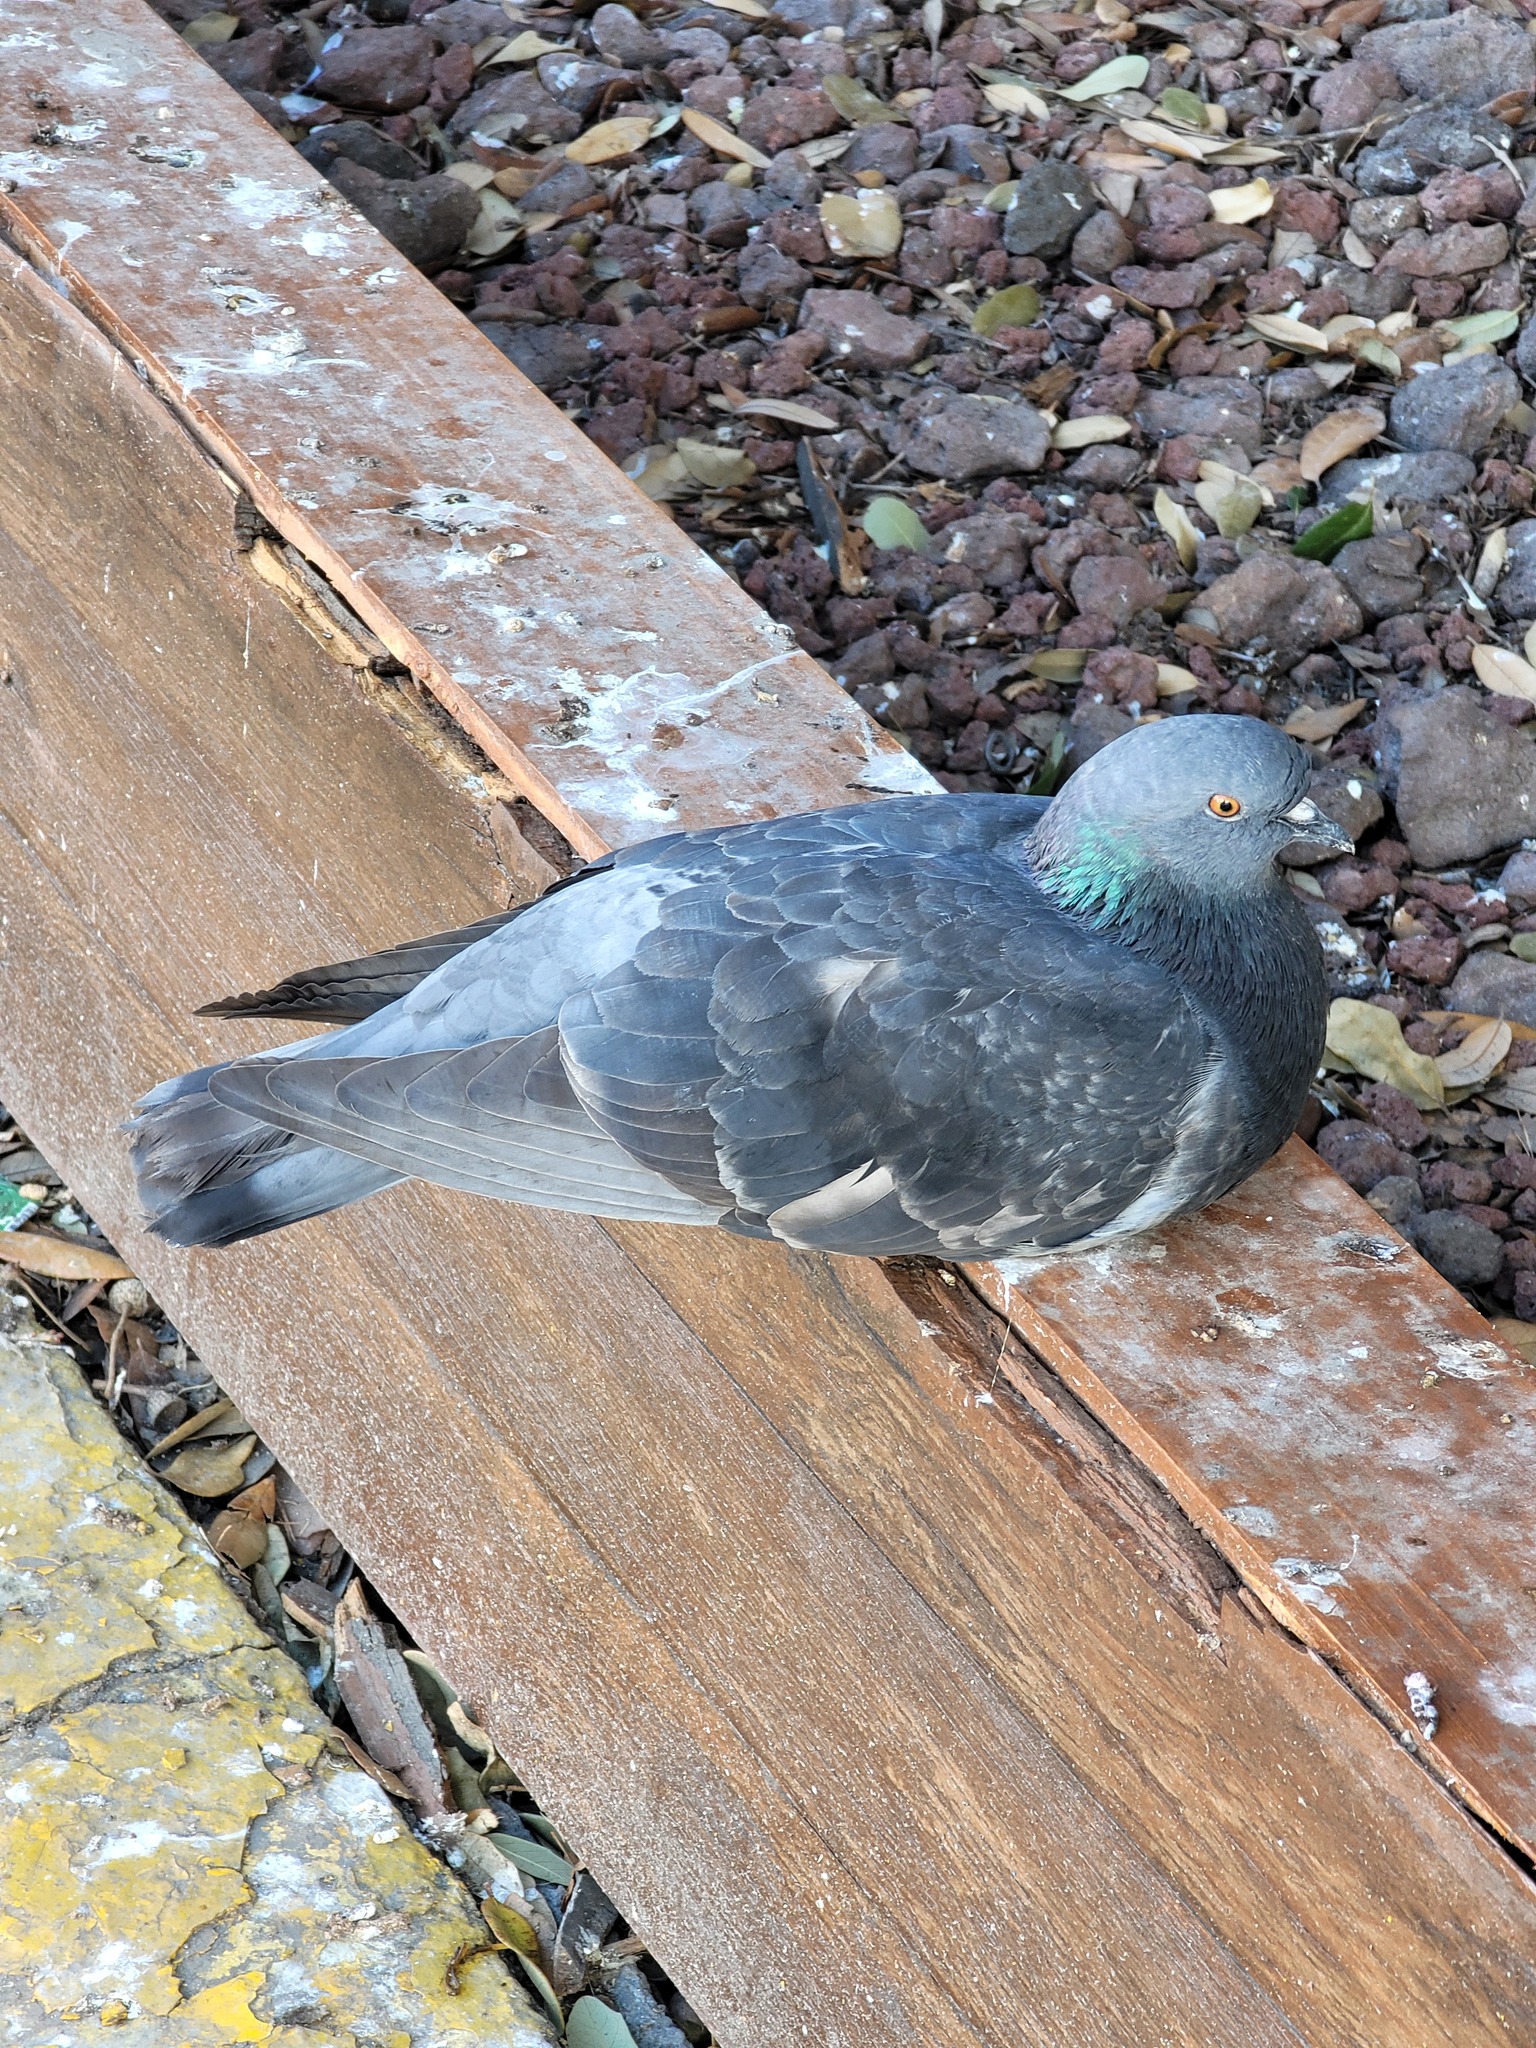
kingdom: Animalia
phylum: Chordata
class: Aves
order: Columbiformes
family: Columbidae
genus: Columba
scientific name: Columba livia
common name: Rock pigeon
